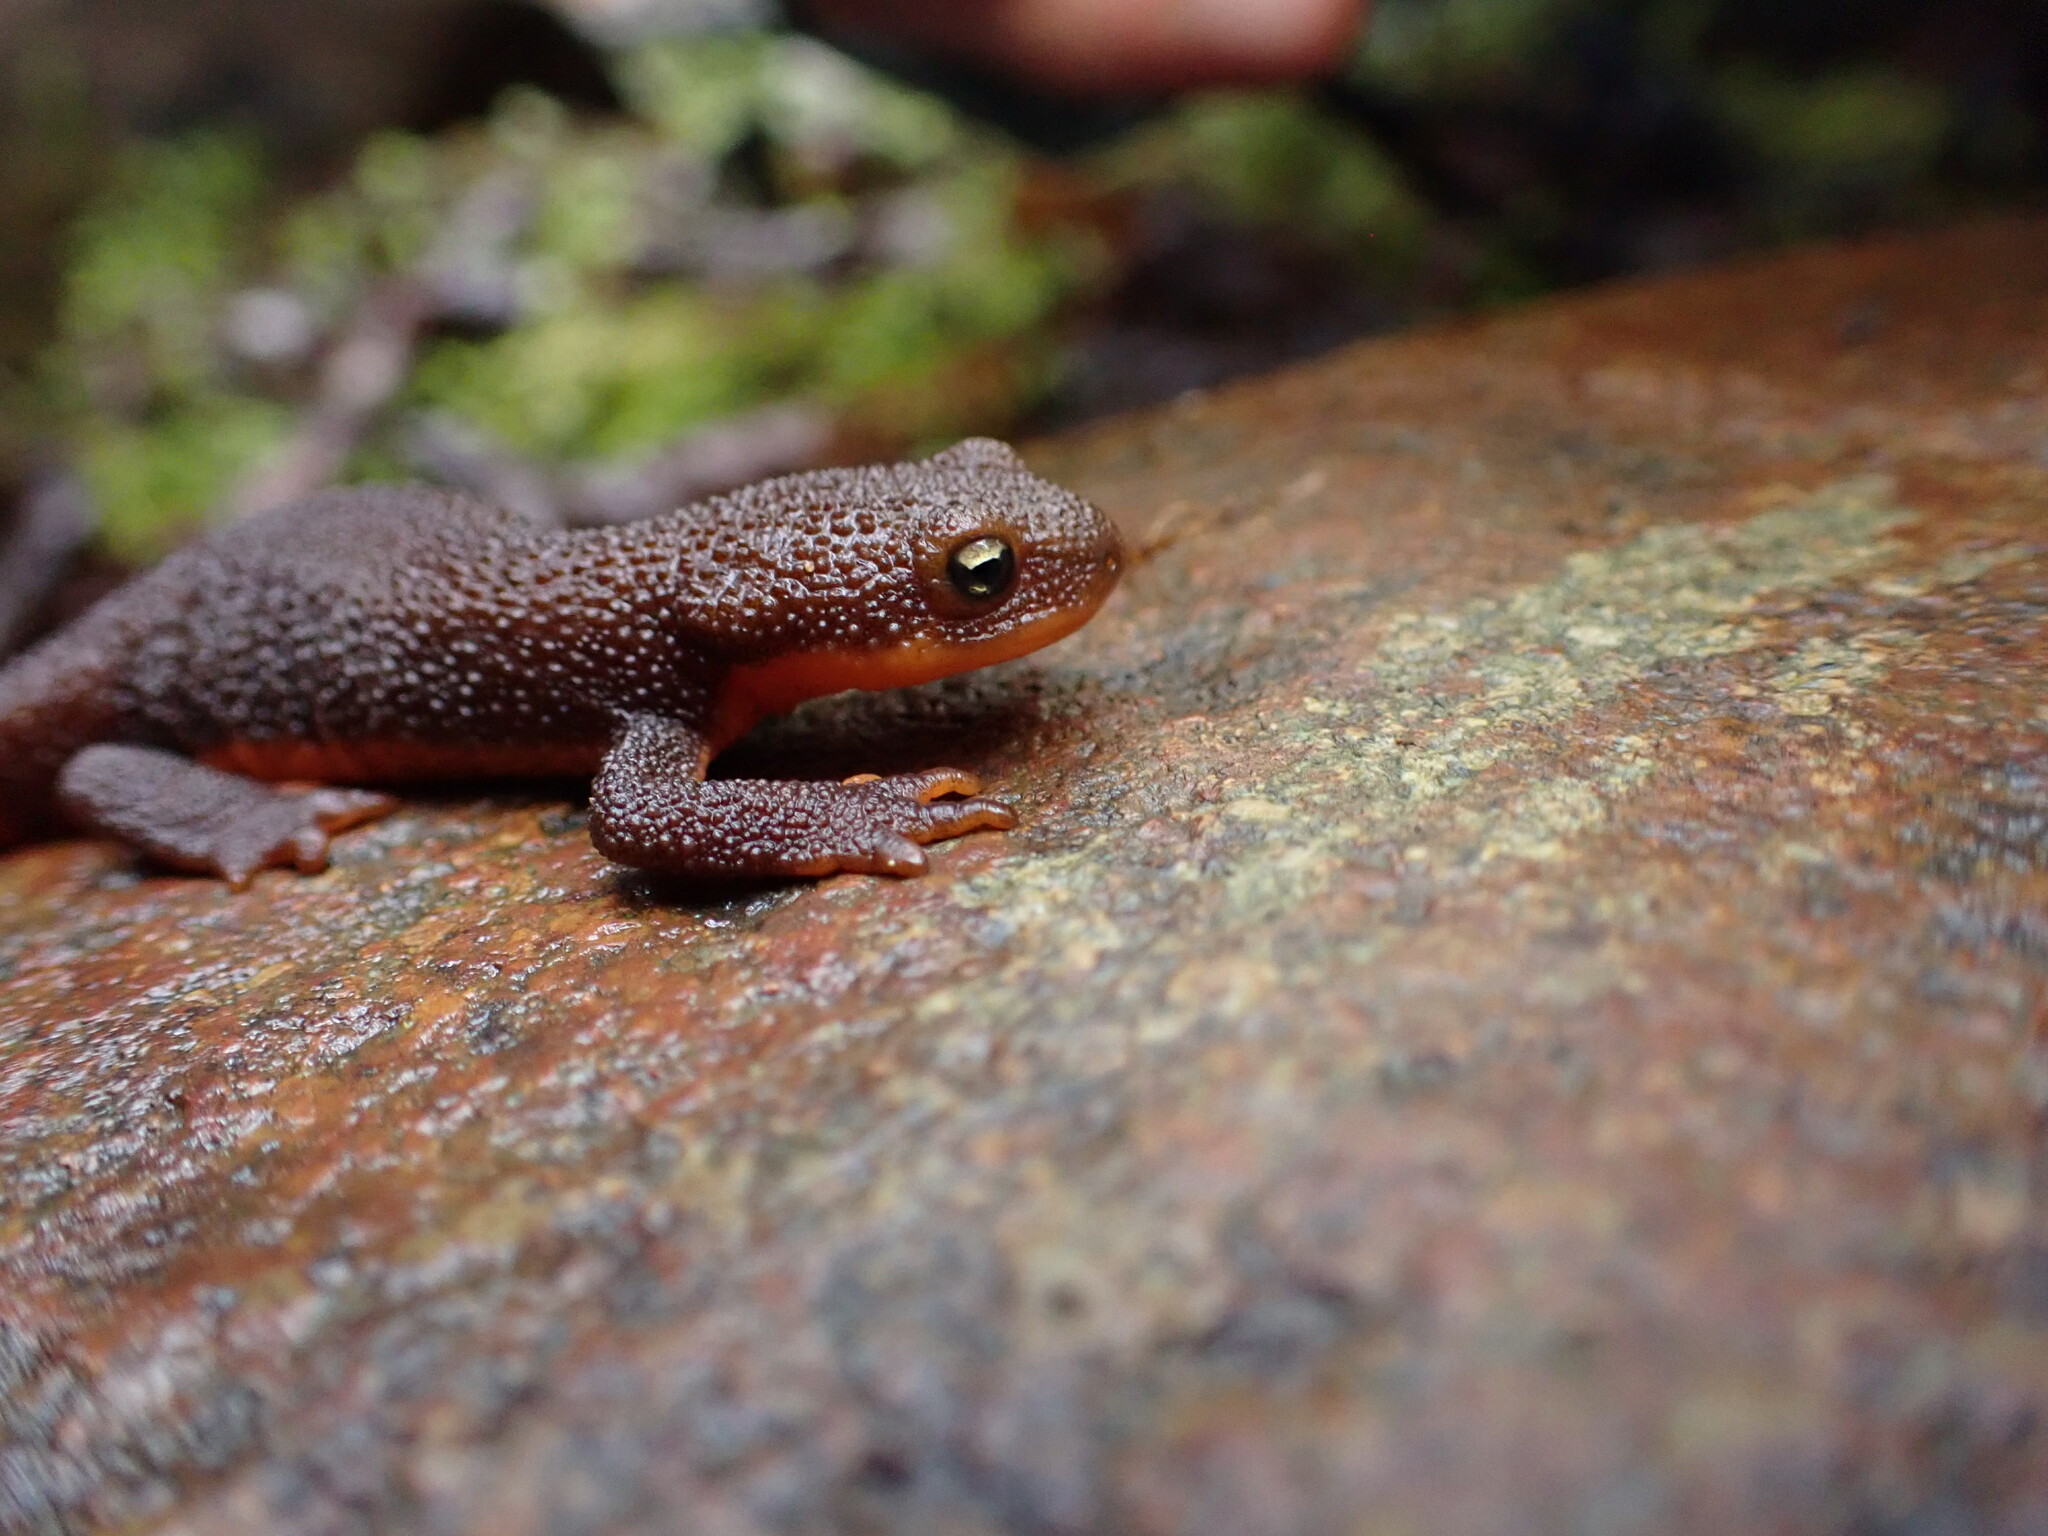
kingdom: Animalia
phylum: Chordata
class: Amphibia
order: Caudata
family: Salamandridae
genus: Taricha
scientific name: Taricha granulosa
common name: Roughskin newt
